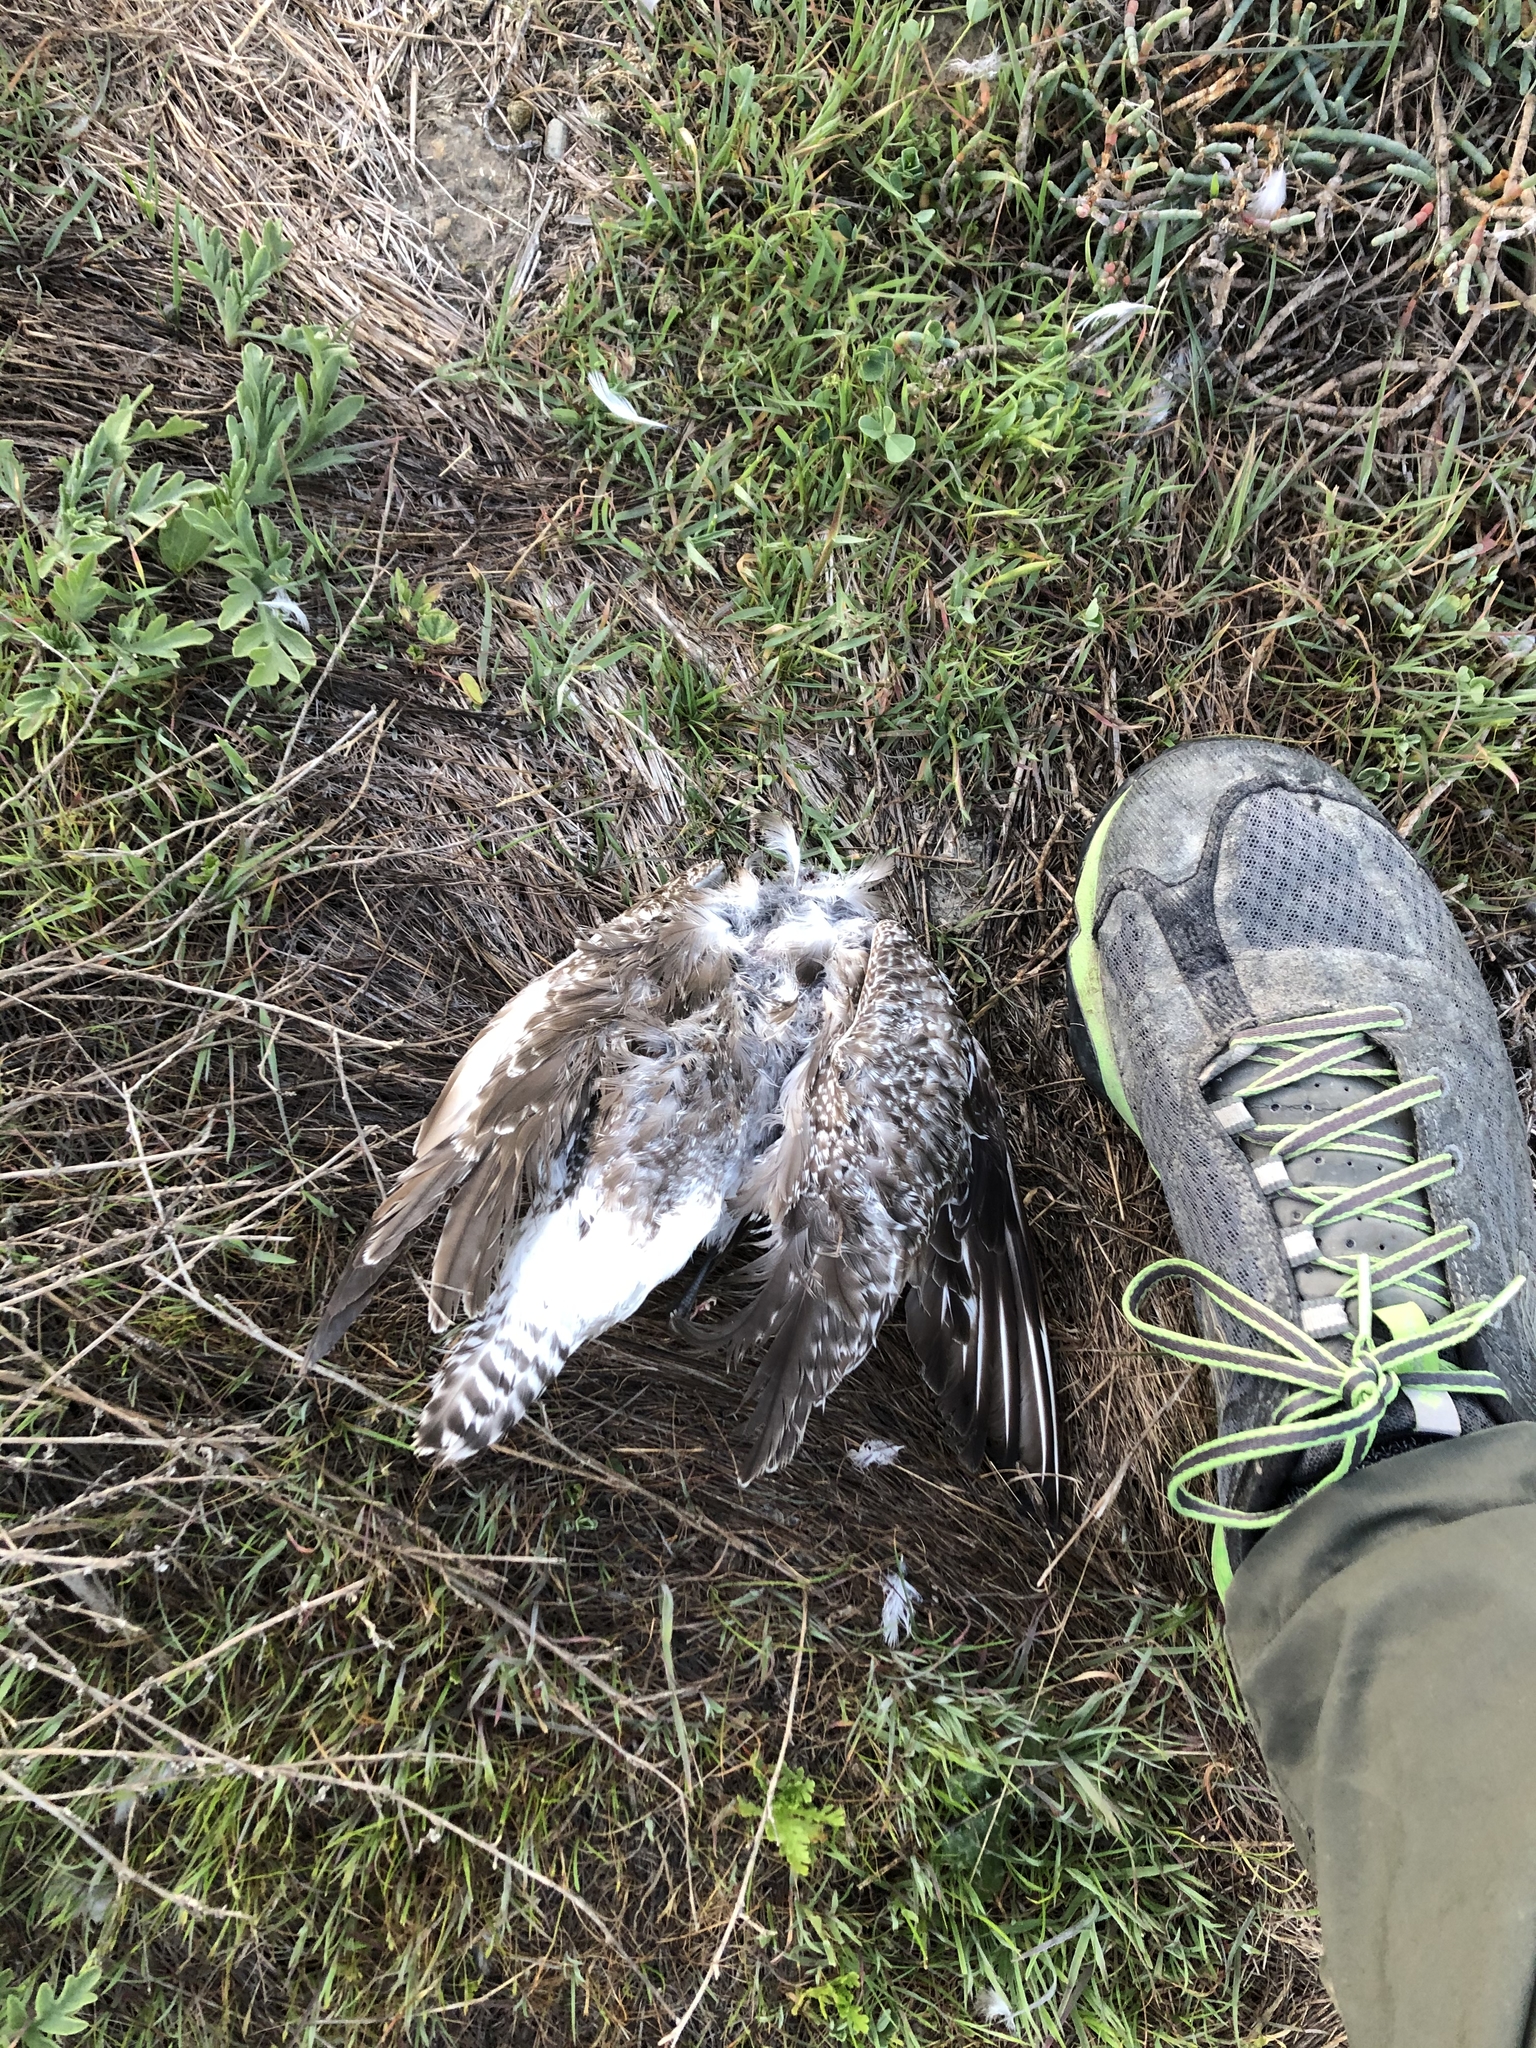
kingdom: Animalia
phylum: Chordata
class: Aves
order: Charadriiformes
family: Charadriidae
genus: Pluvialis
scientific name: Pluvialis squatarola
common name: Grey plover
